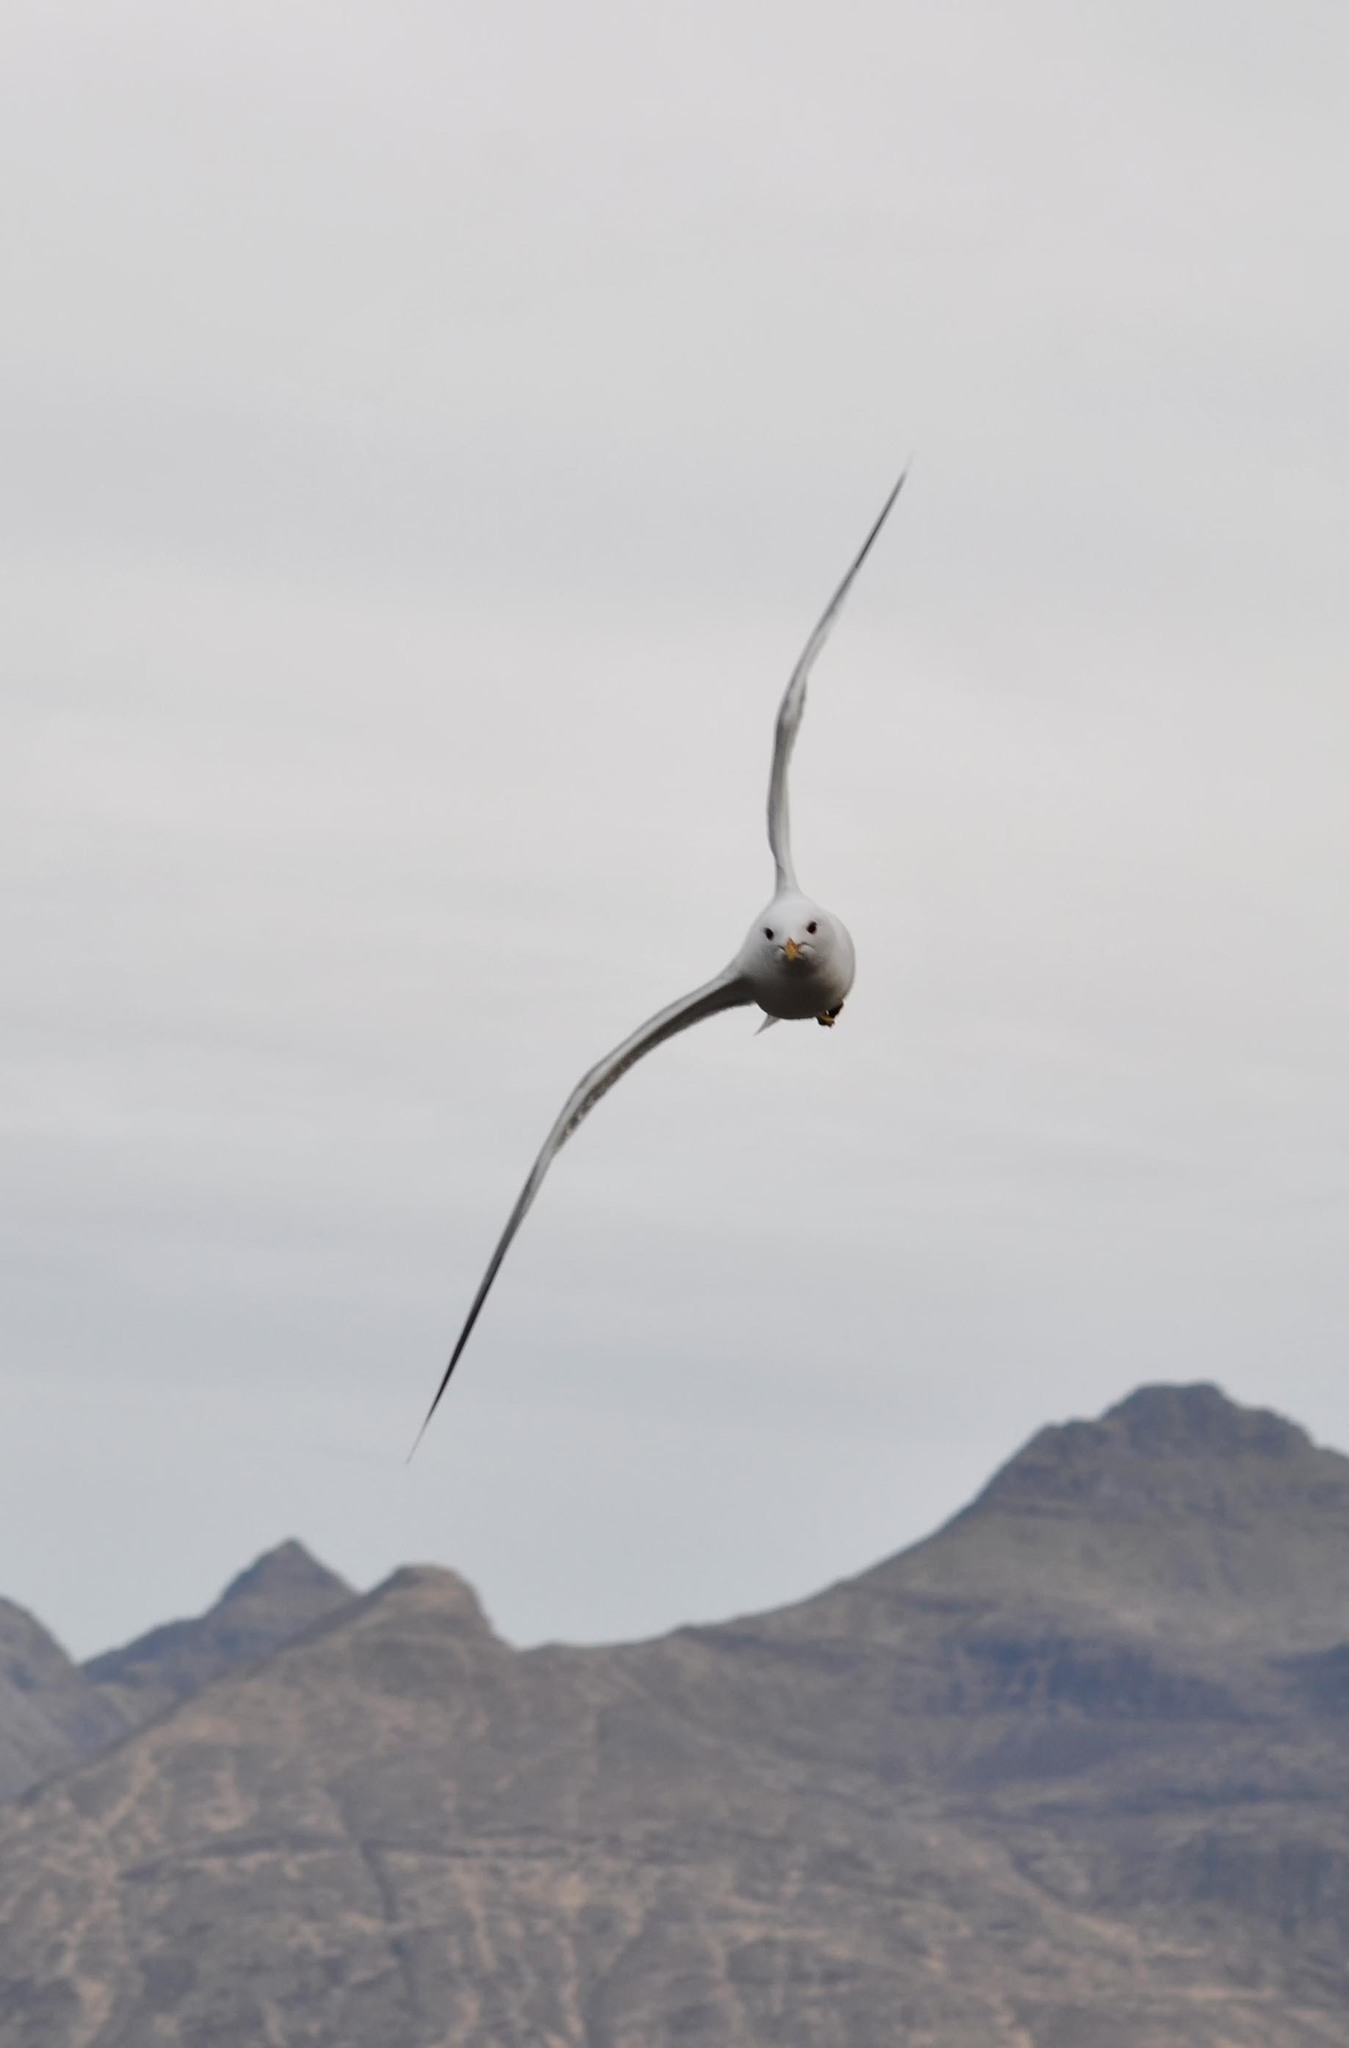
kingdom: Animalia
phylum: Chordata
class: Aves
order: Charadriiformes
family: Laridae
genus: Larus
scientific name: Larus canus
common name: Mew gull
